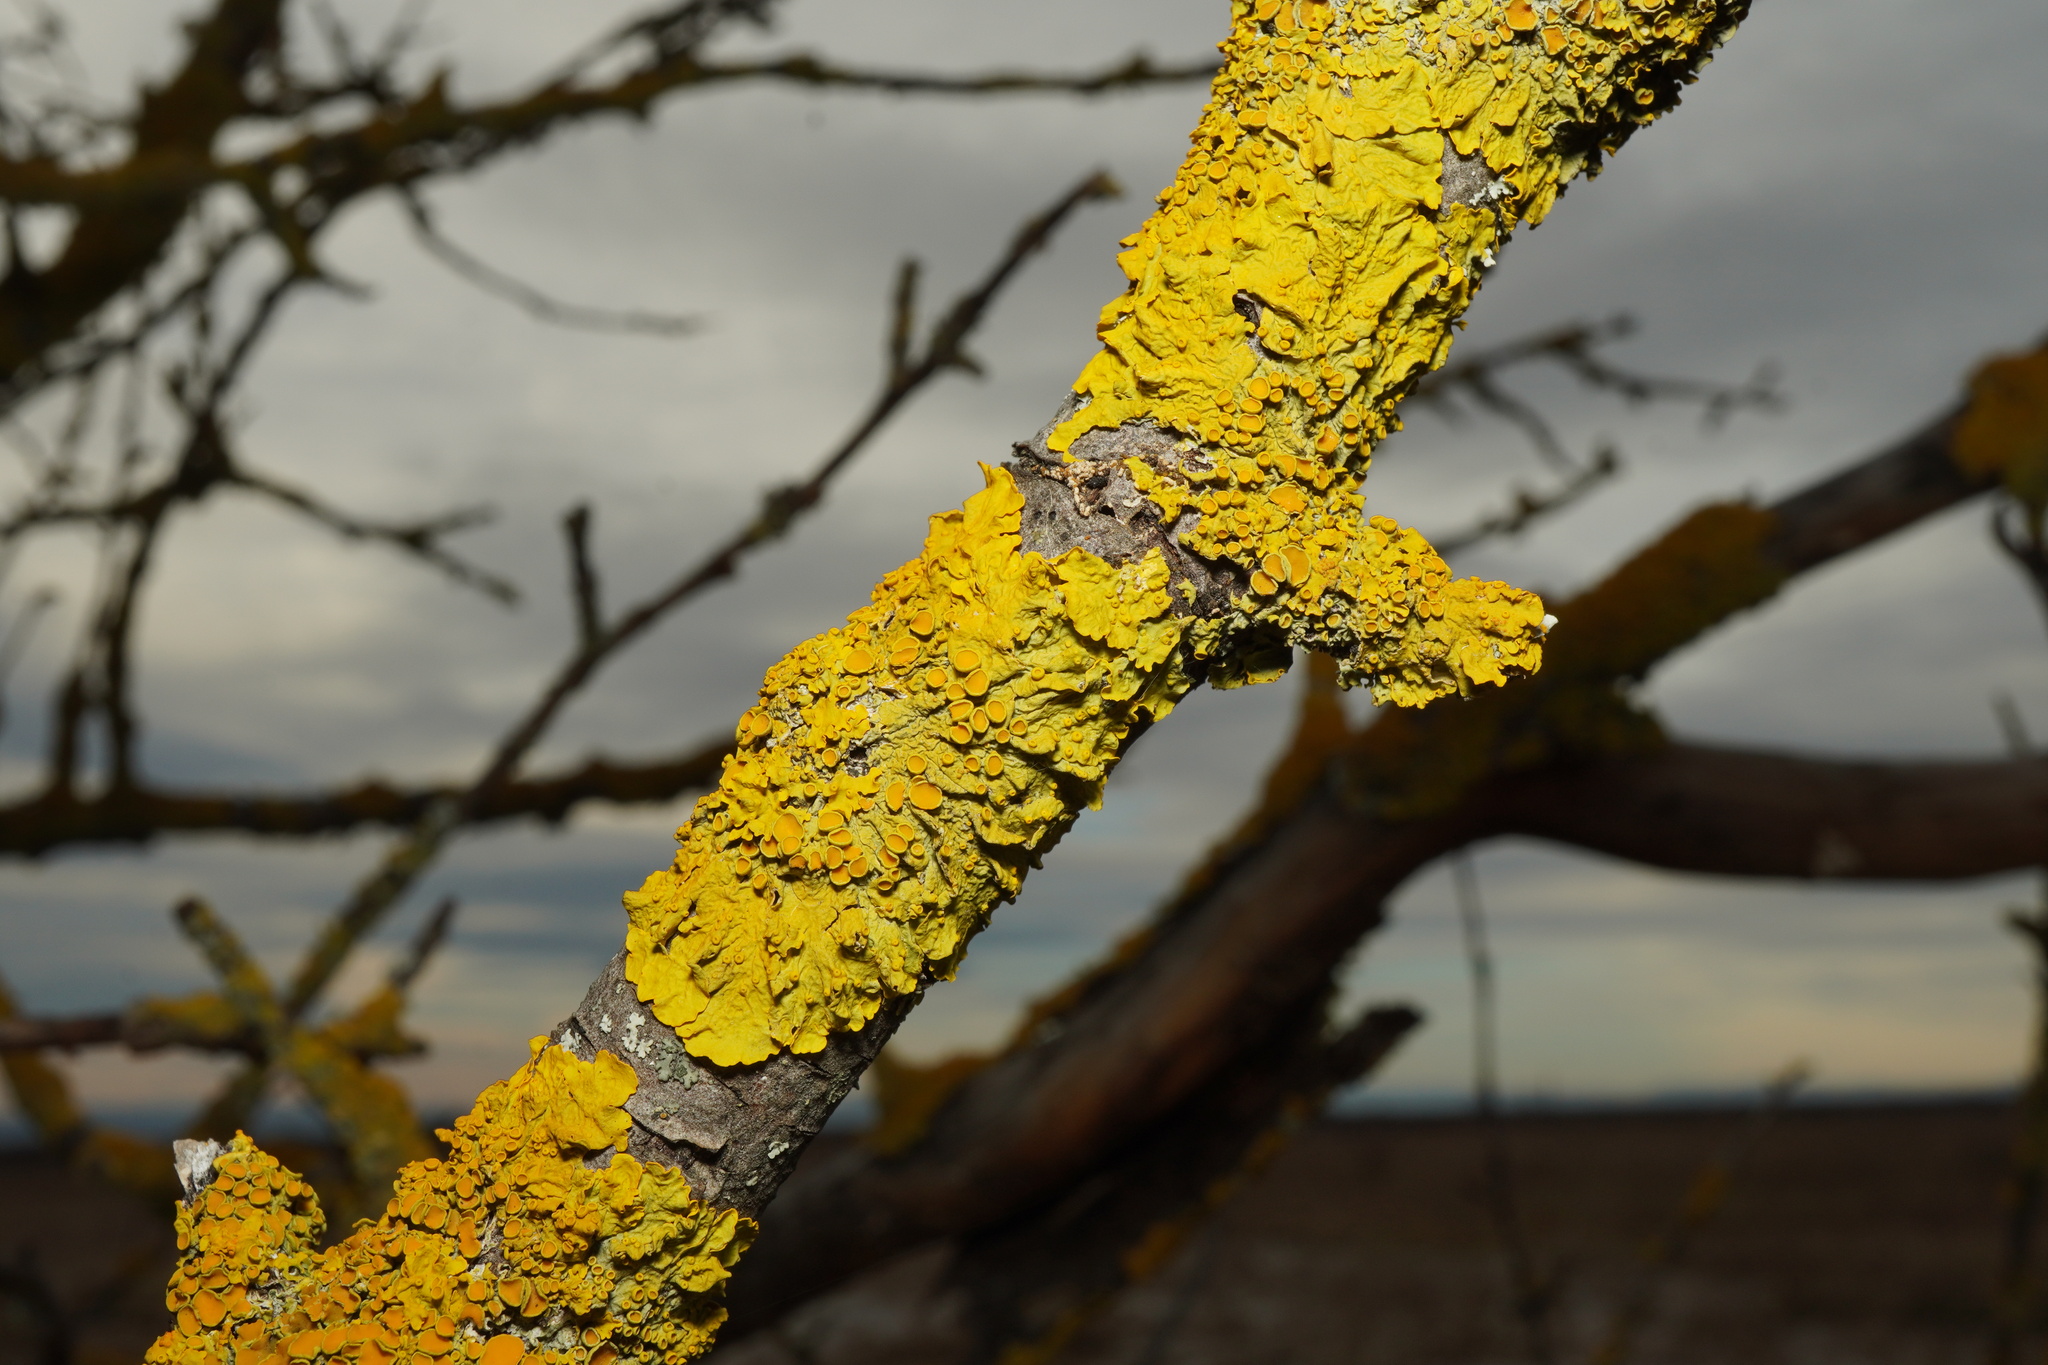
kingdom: Fungi
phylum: Ascomycota
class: Lecanoromycetes
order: Teloschistales
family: Teloschistaceae
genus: Xanthoria
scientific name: Xanthoria parietina
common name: Common orange lichen
